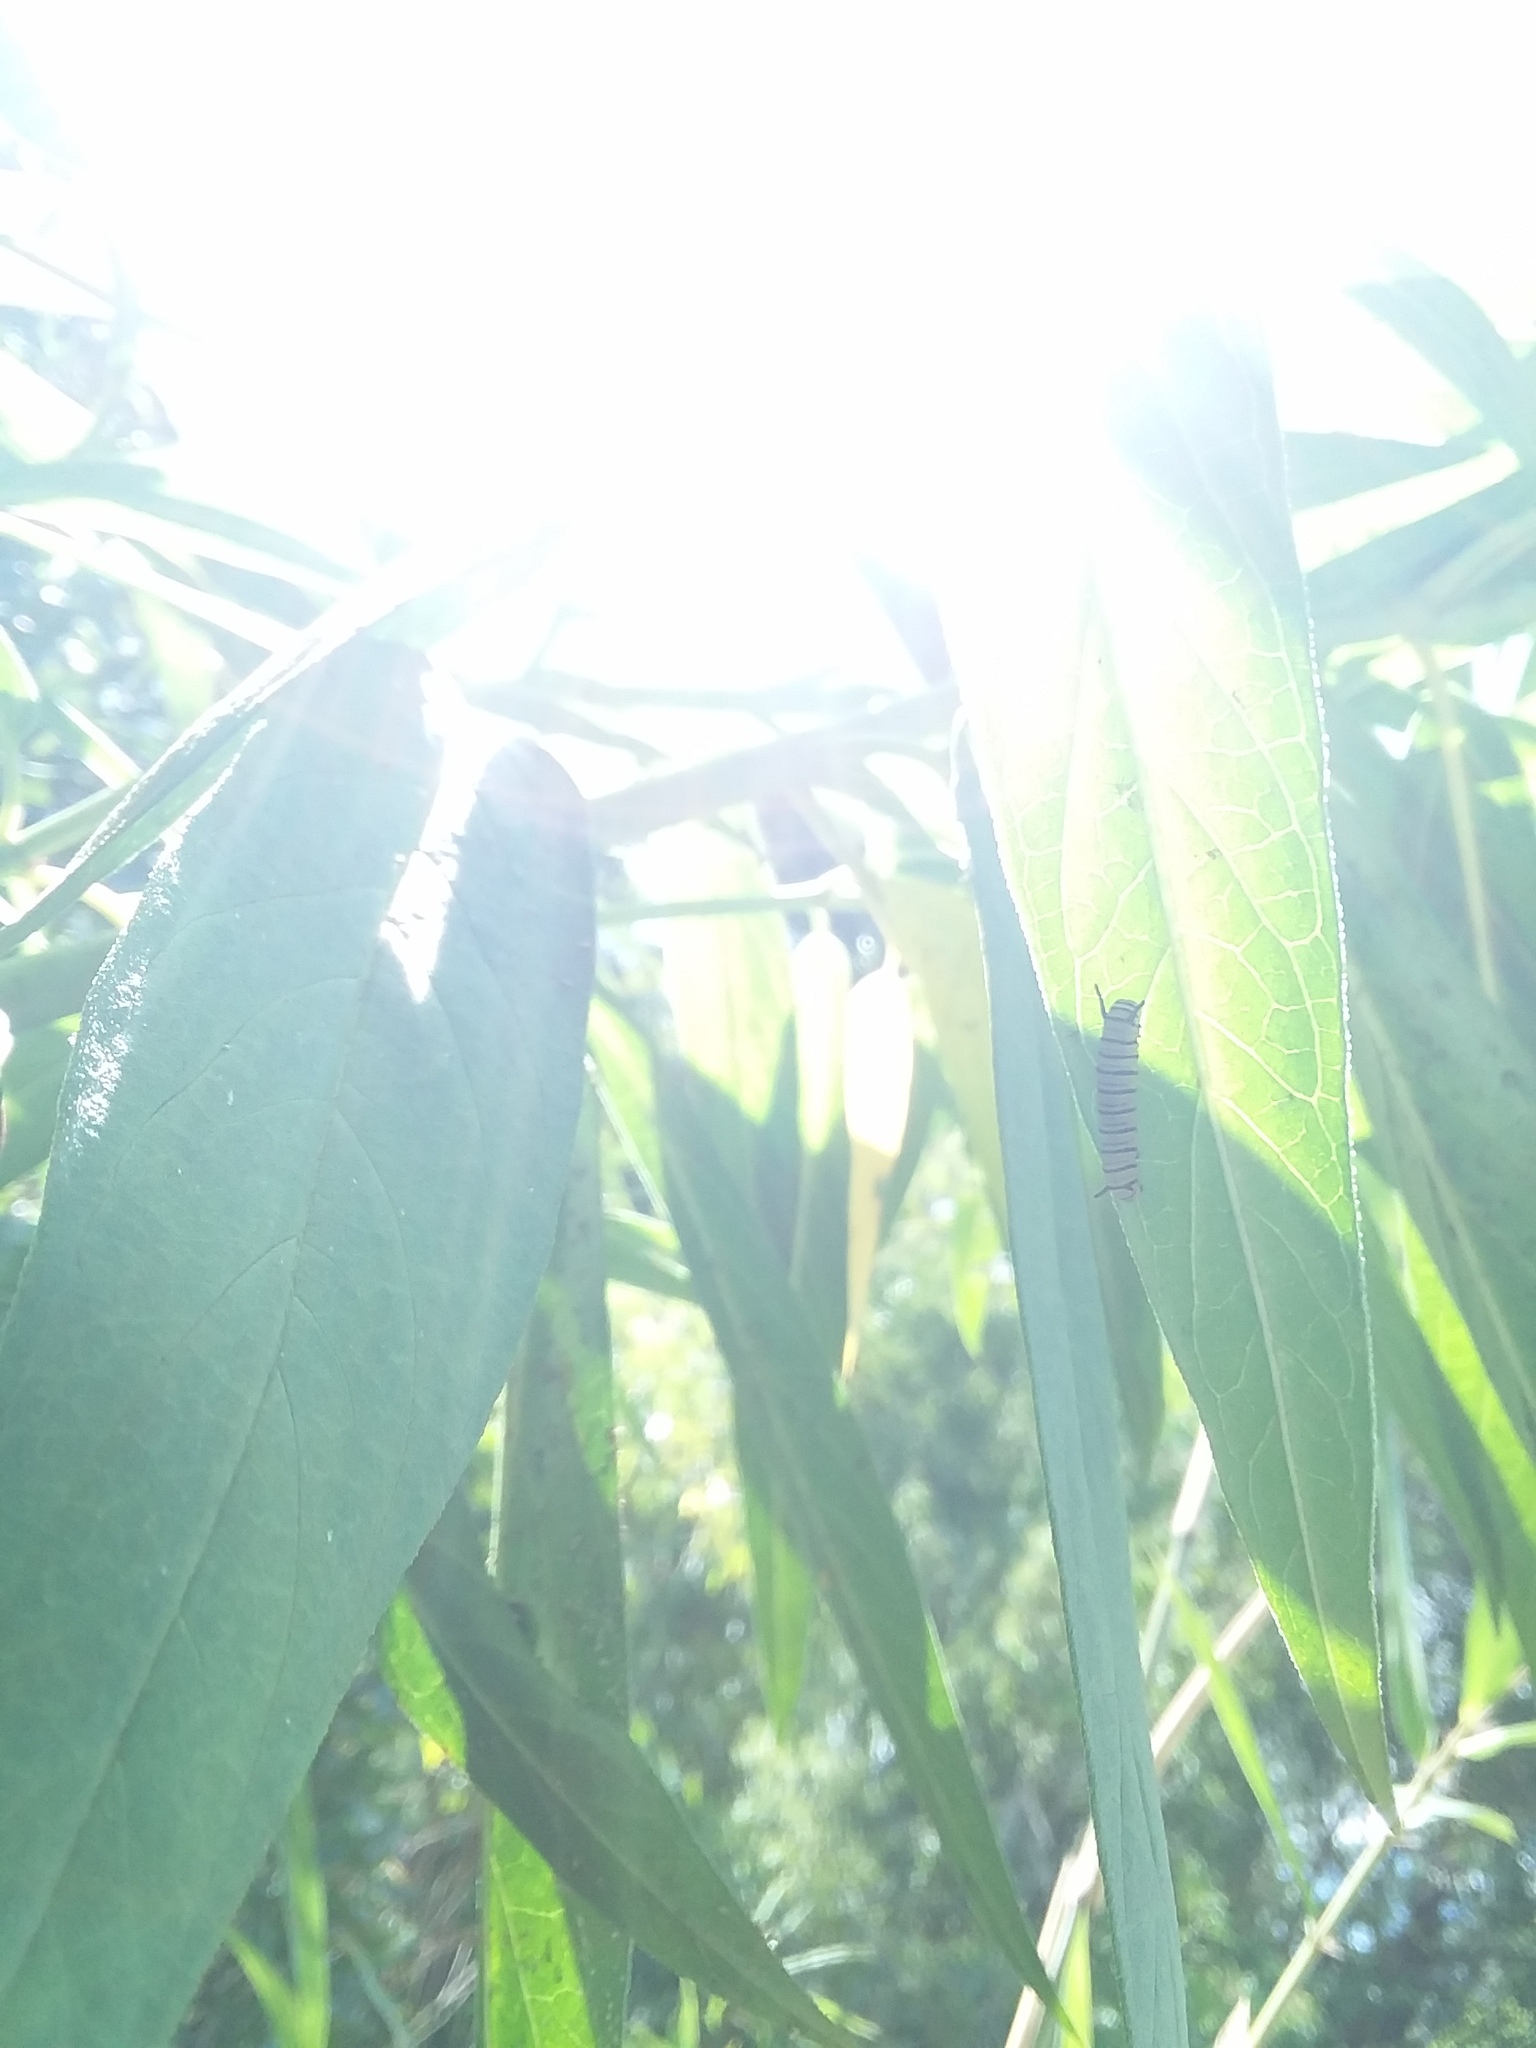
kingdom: Animalia
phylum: Arthropoda
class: Insecta
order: Lepidoptera
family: Nymphalidae
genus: Danaus
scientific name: Danaus plexippus
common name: Monarch
